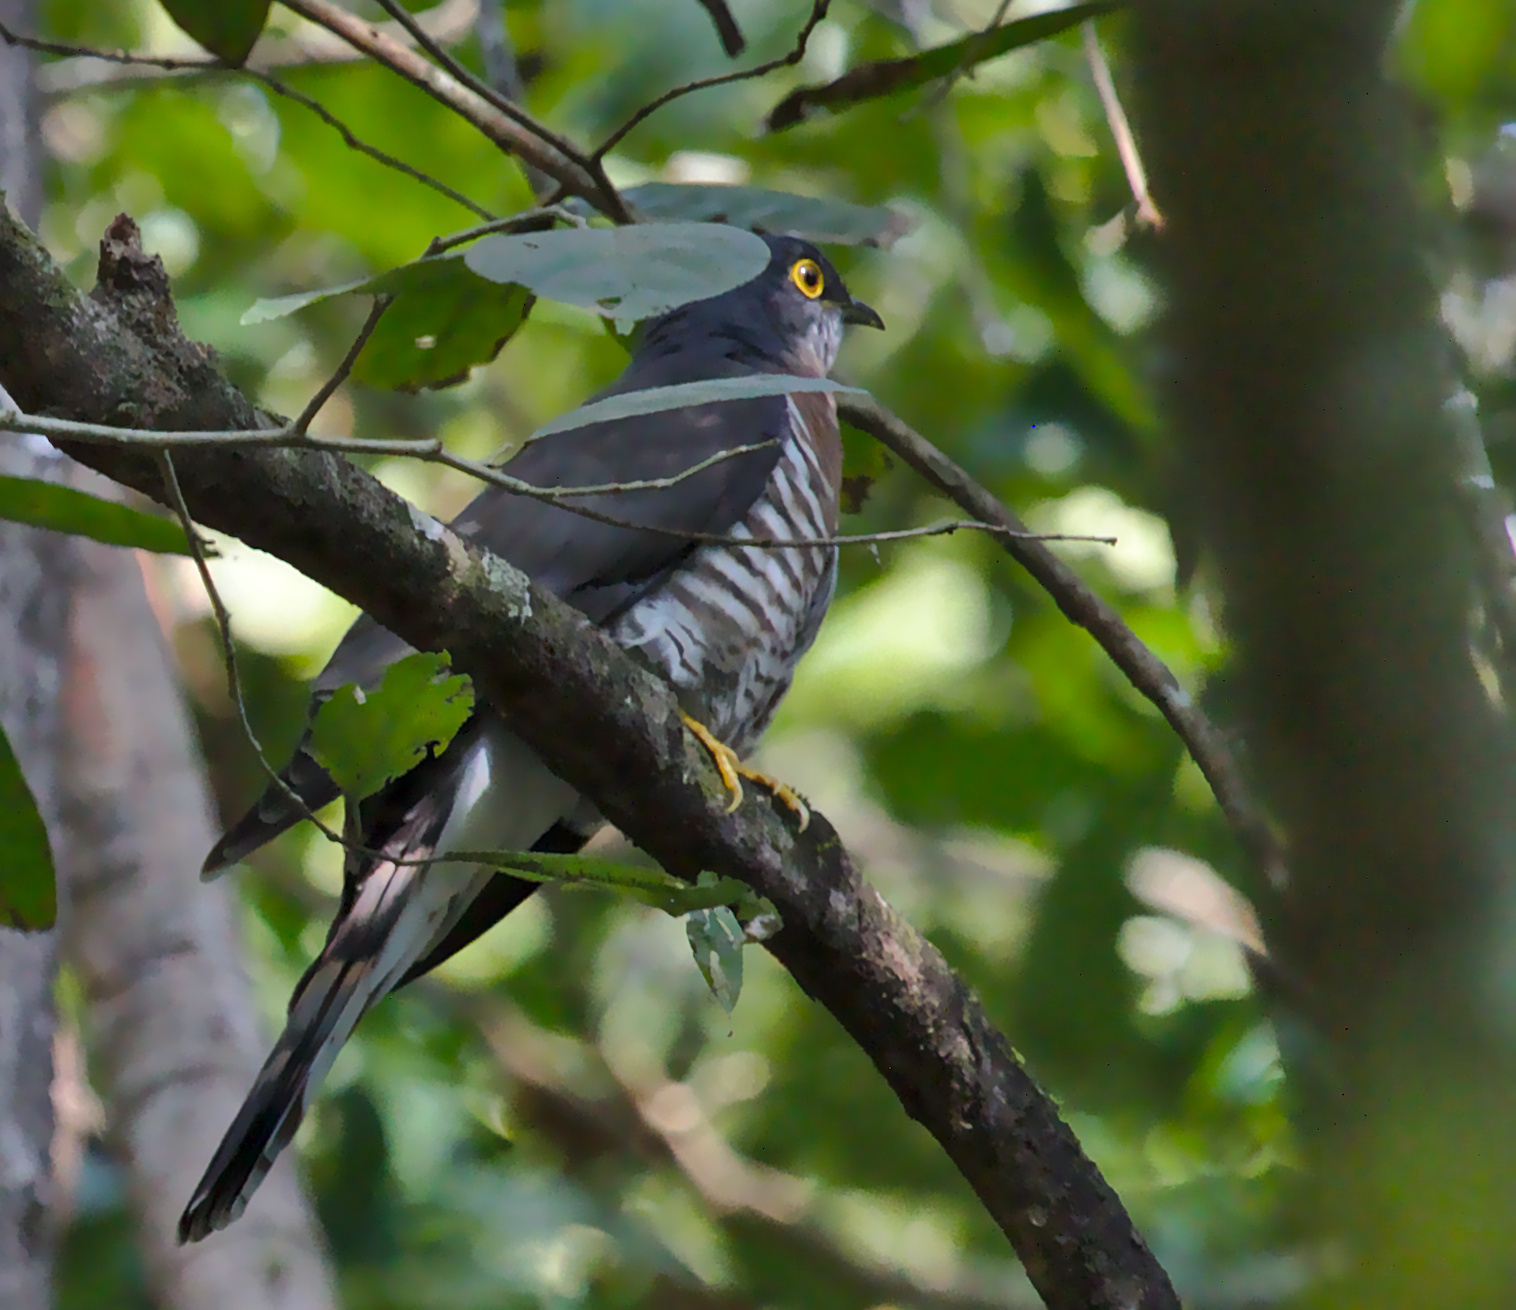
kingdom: Animalia
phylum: Chordata
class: Aves
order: Cuculiformes
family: Cuculidae
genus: Cuculus
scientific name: Cuculus sparverioides
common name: Large hawk cuckoo
